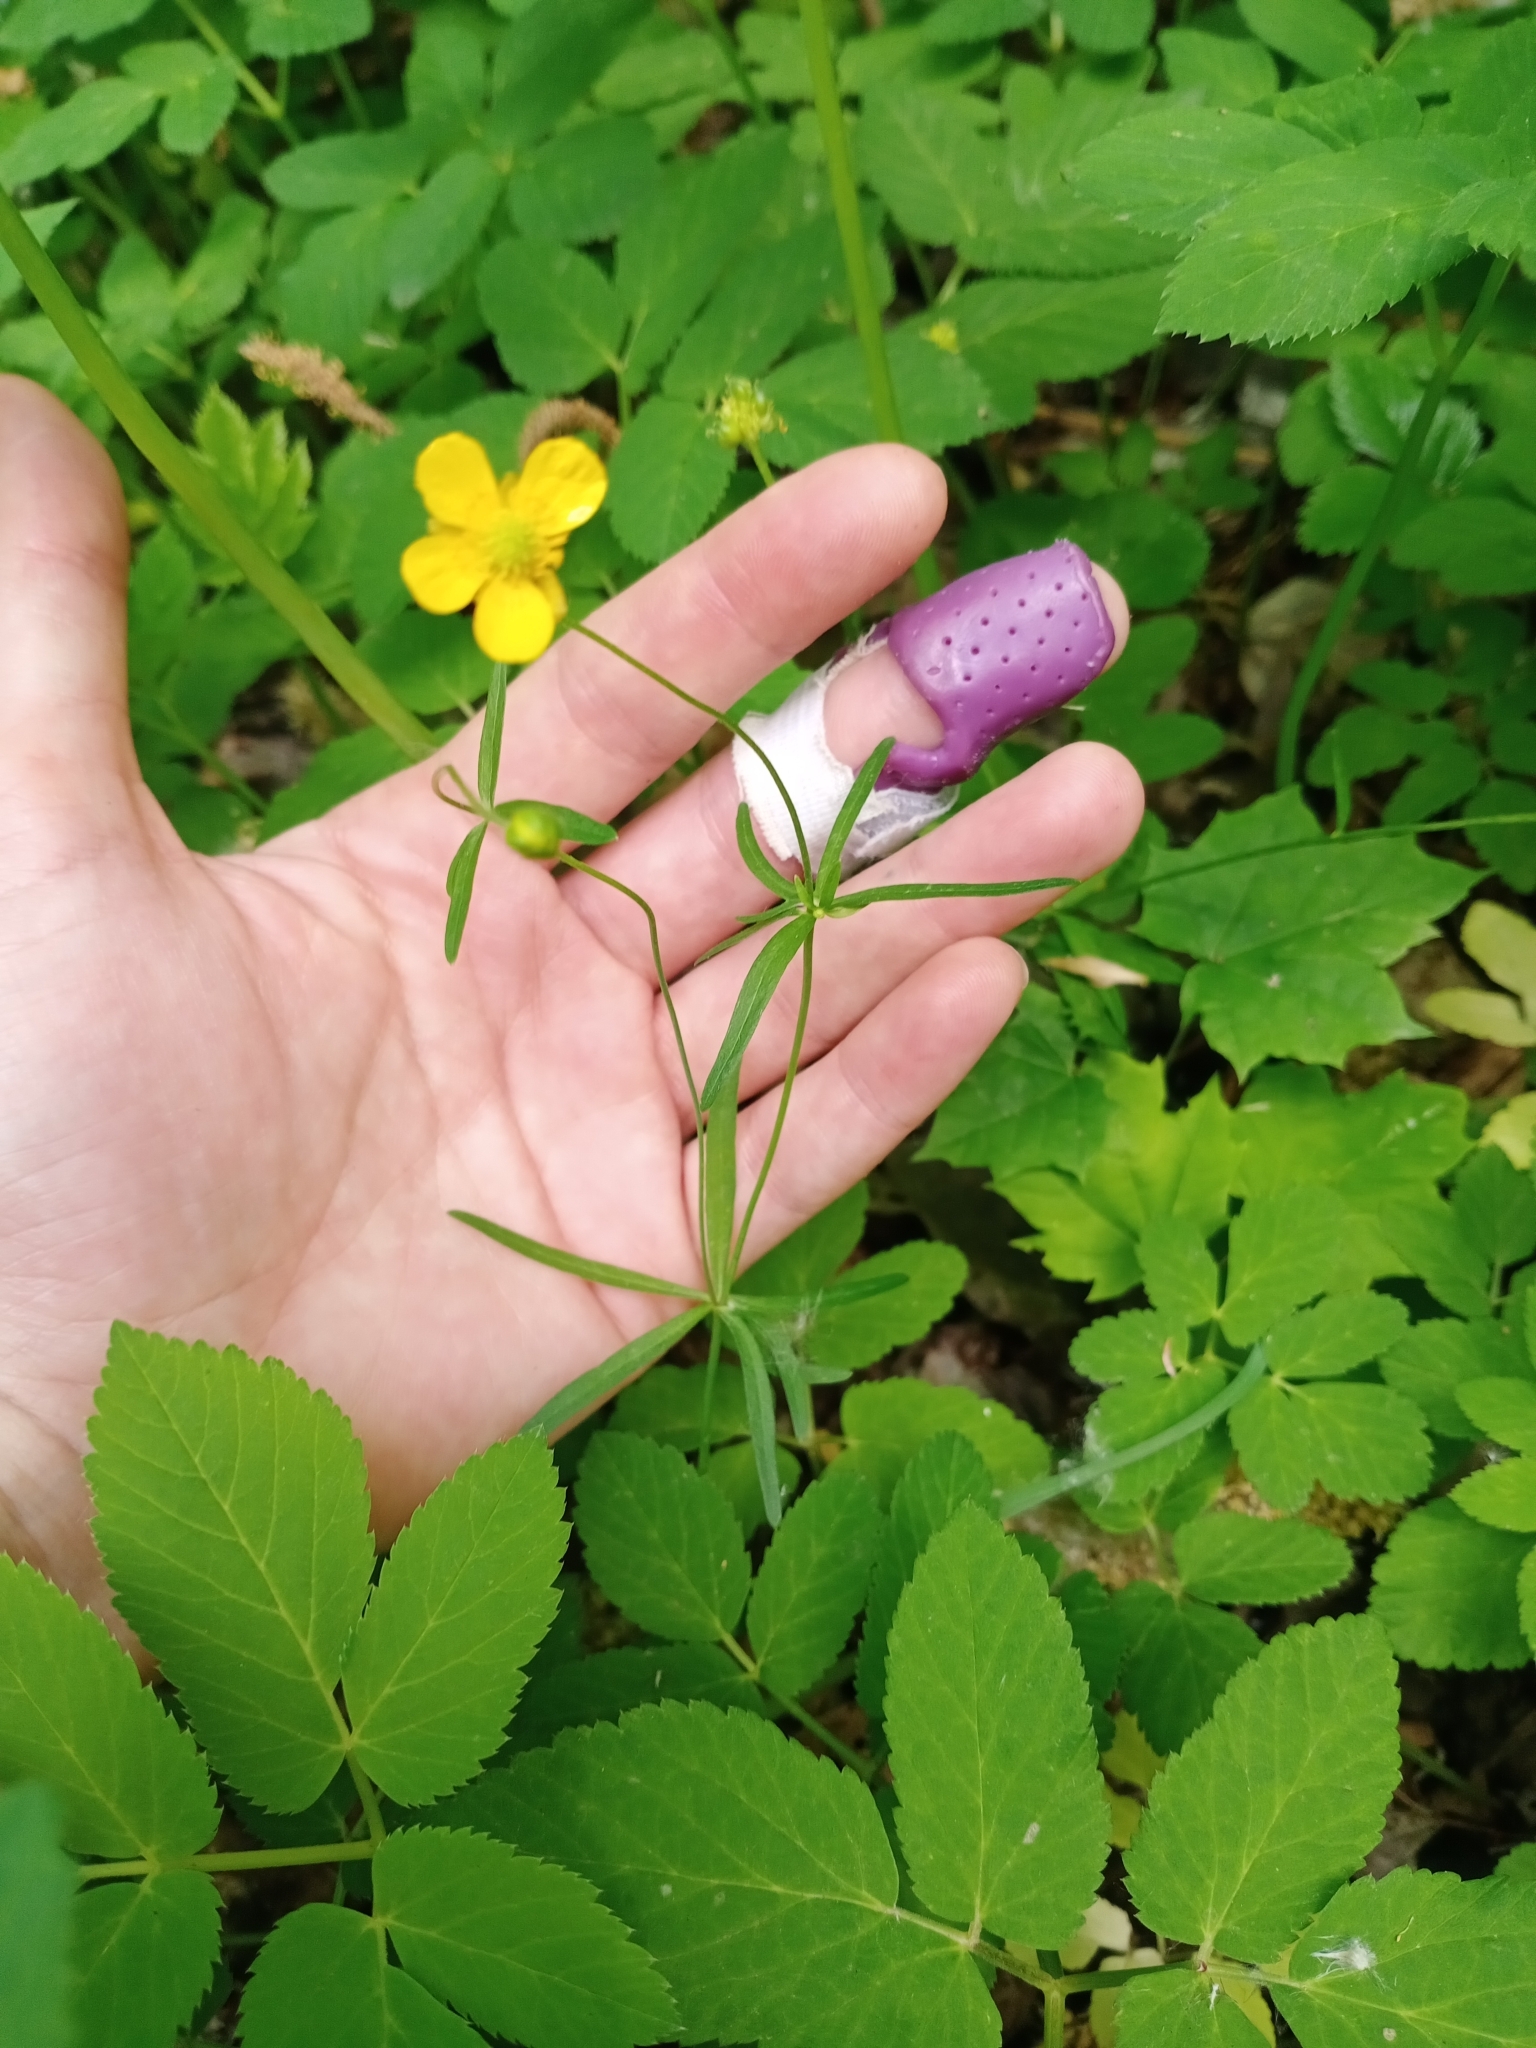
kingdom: Plantae
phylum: Tracheophyta
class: Magnoliopsida
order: Ranunculales
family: Ranunculaceae
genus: Ranunculus
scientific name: Ranunculus auricomus
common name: Goldilocks buttercup
